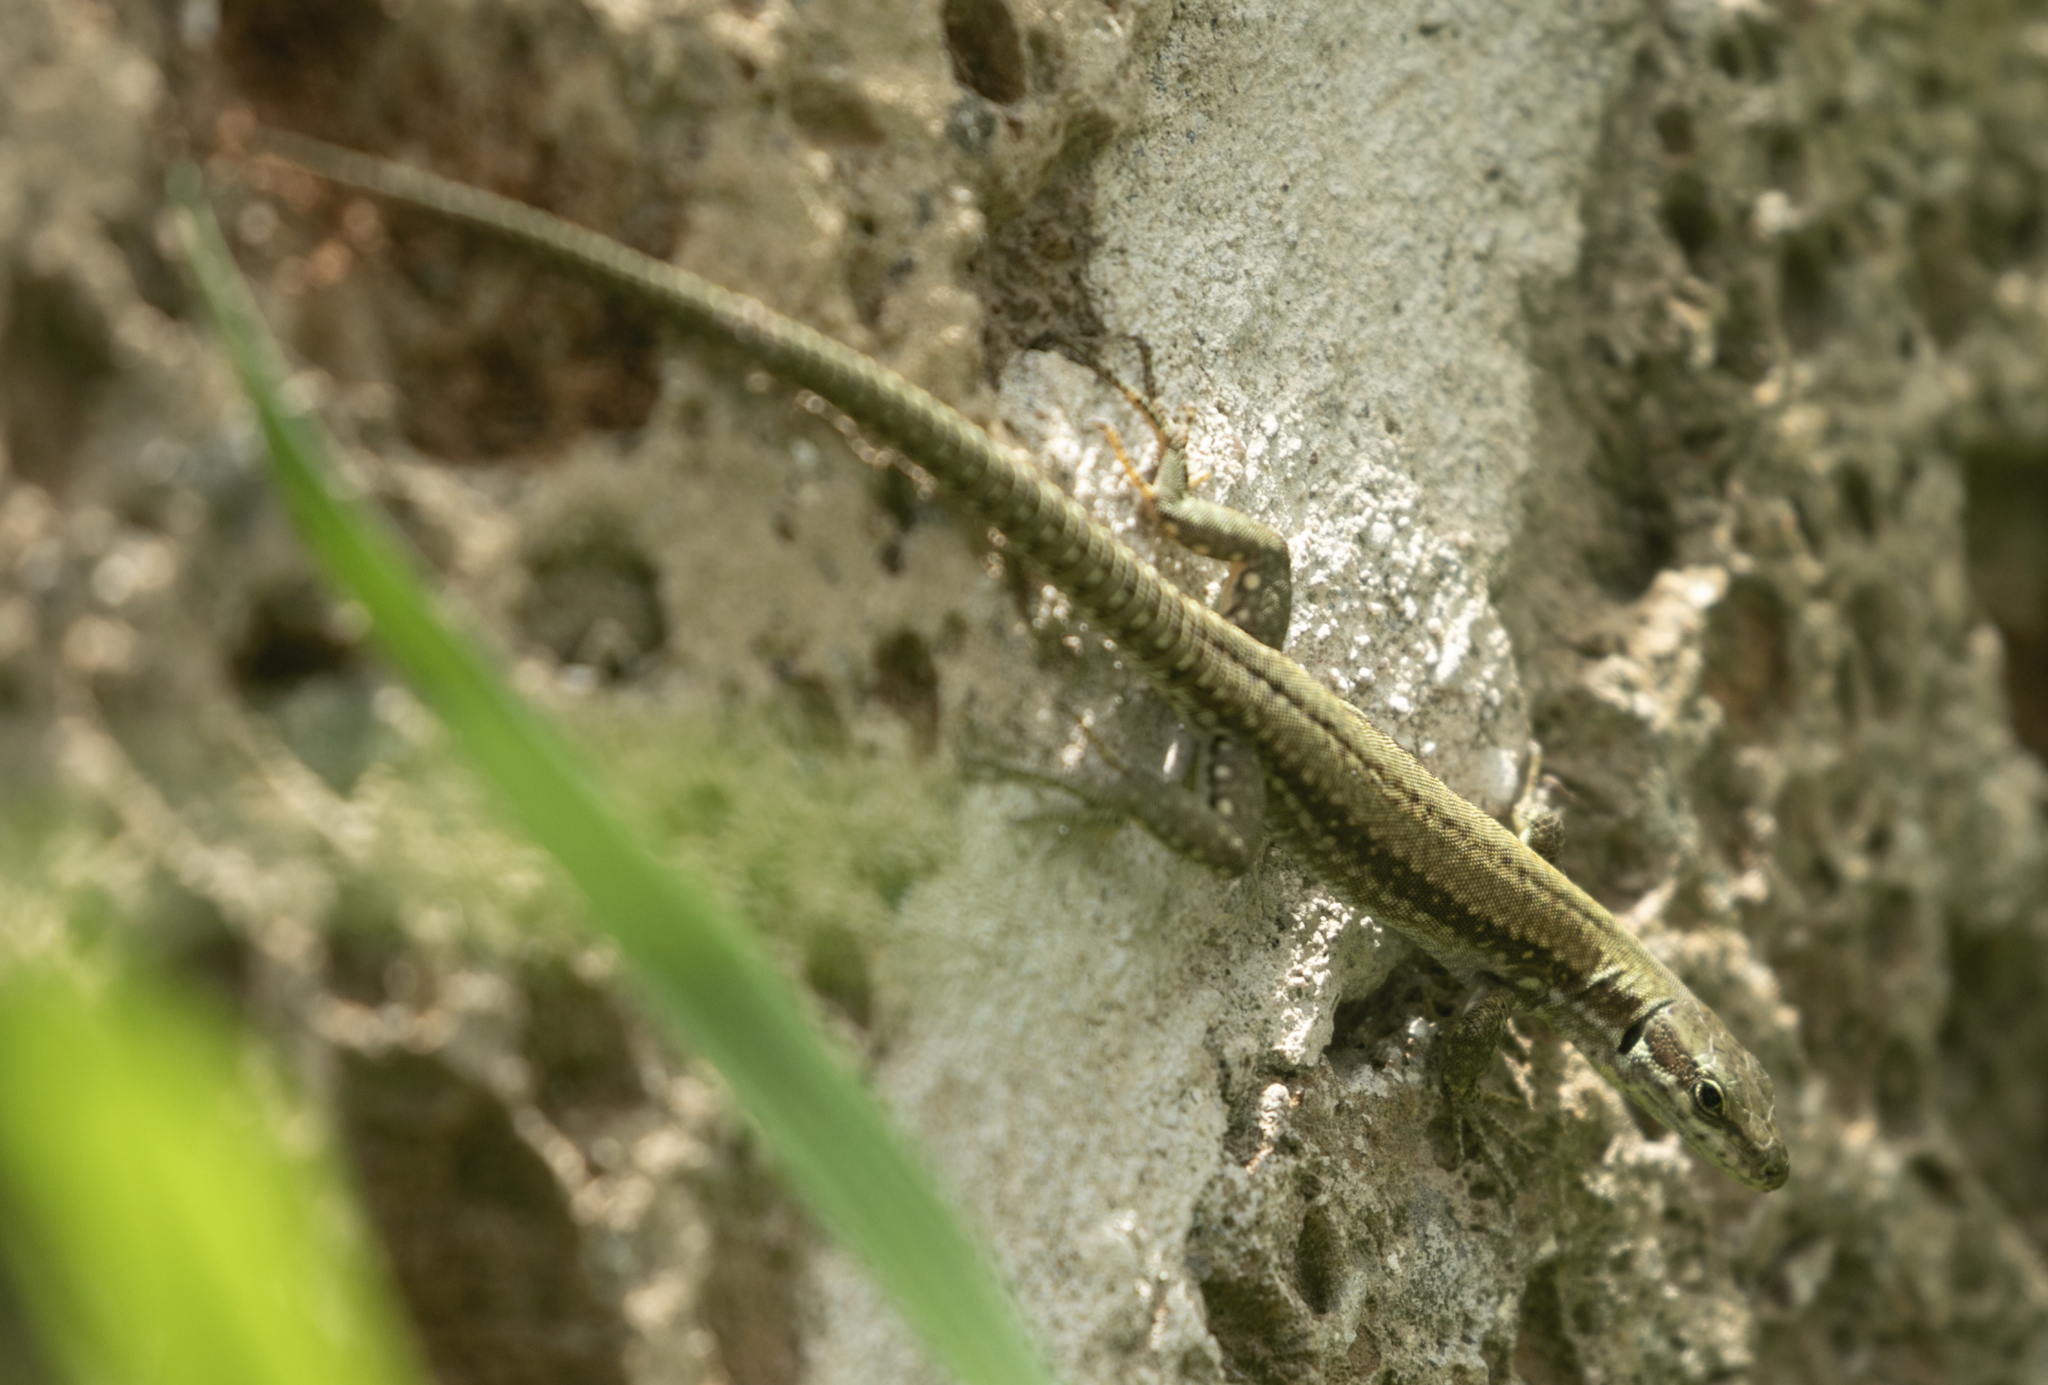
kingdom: Animalia
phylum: Chordata
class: Squamata
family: Lacertidae
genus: Podarcis
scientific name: Podarcis muralis
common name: Common wall lizard
